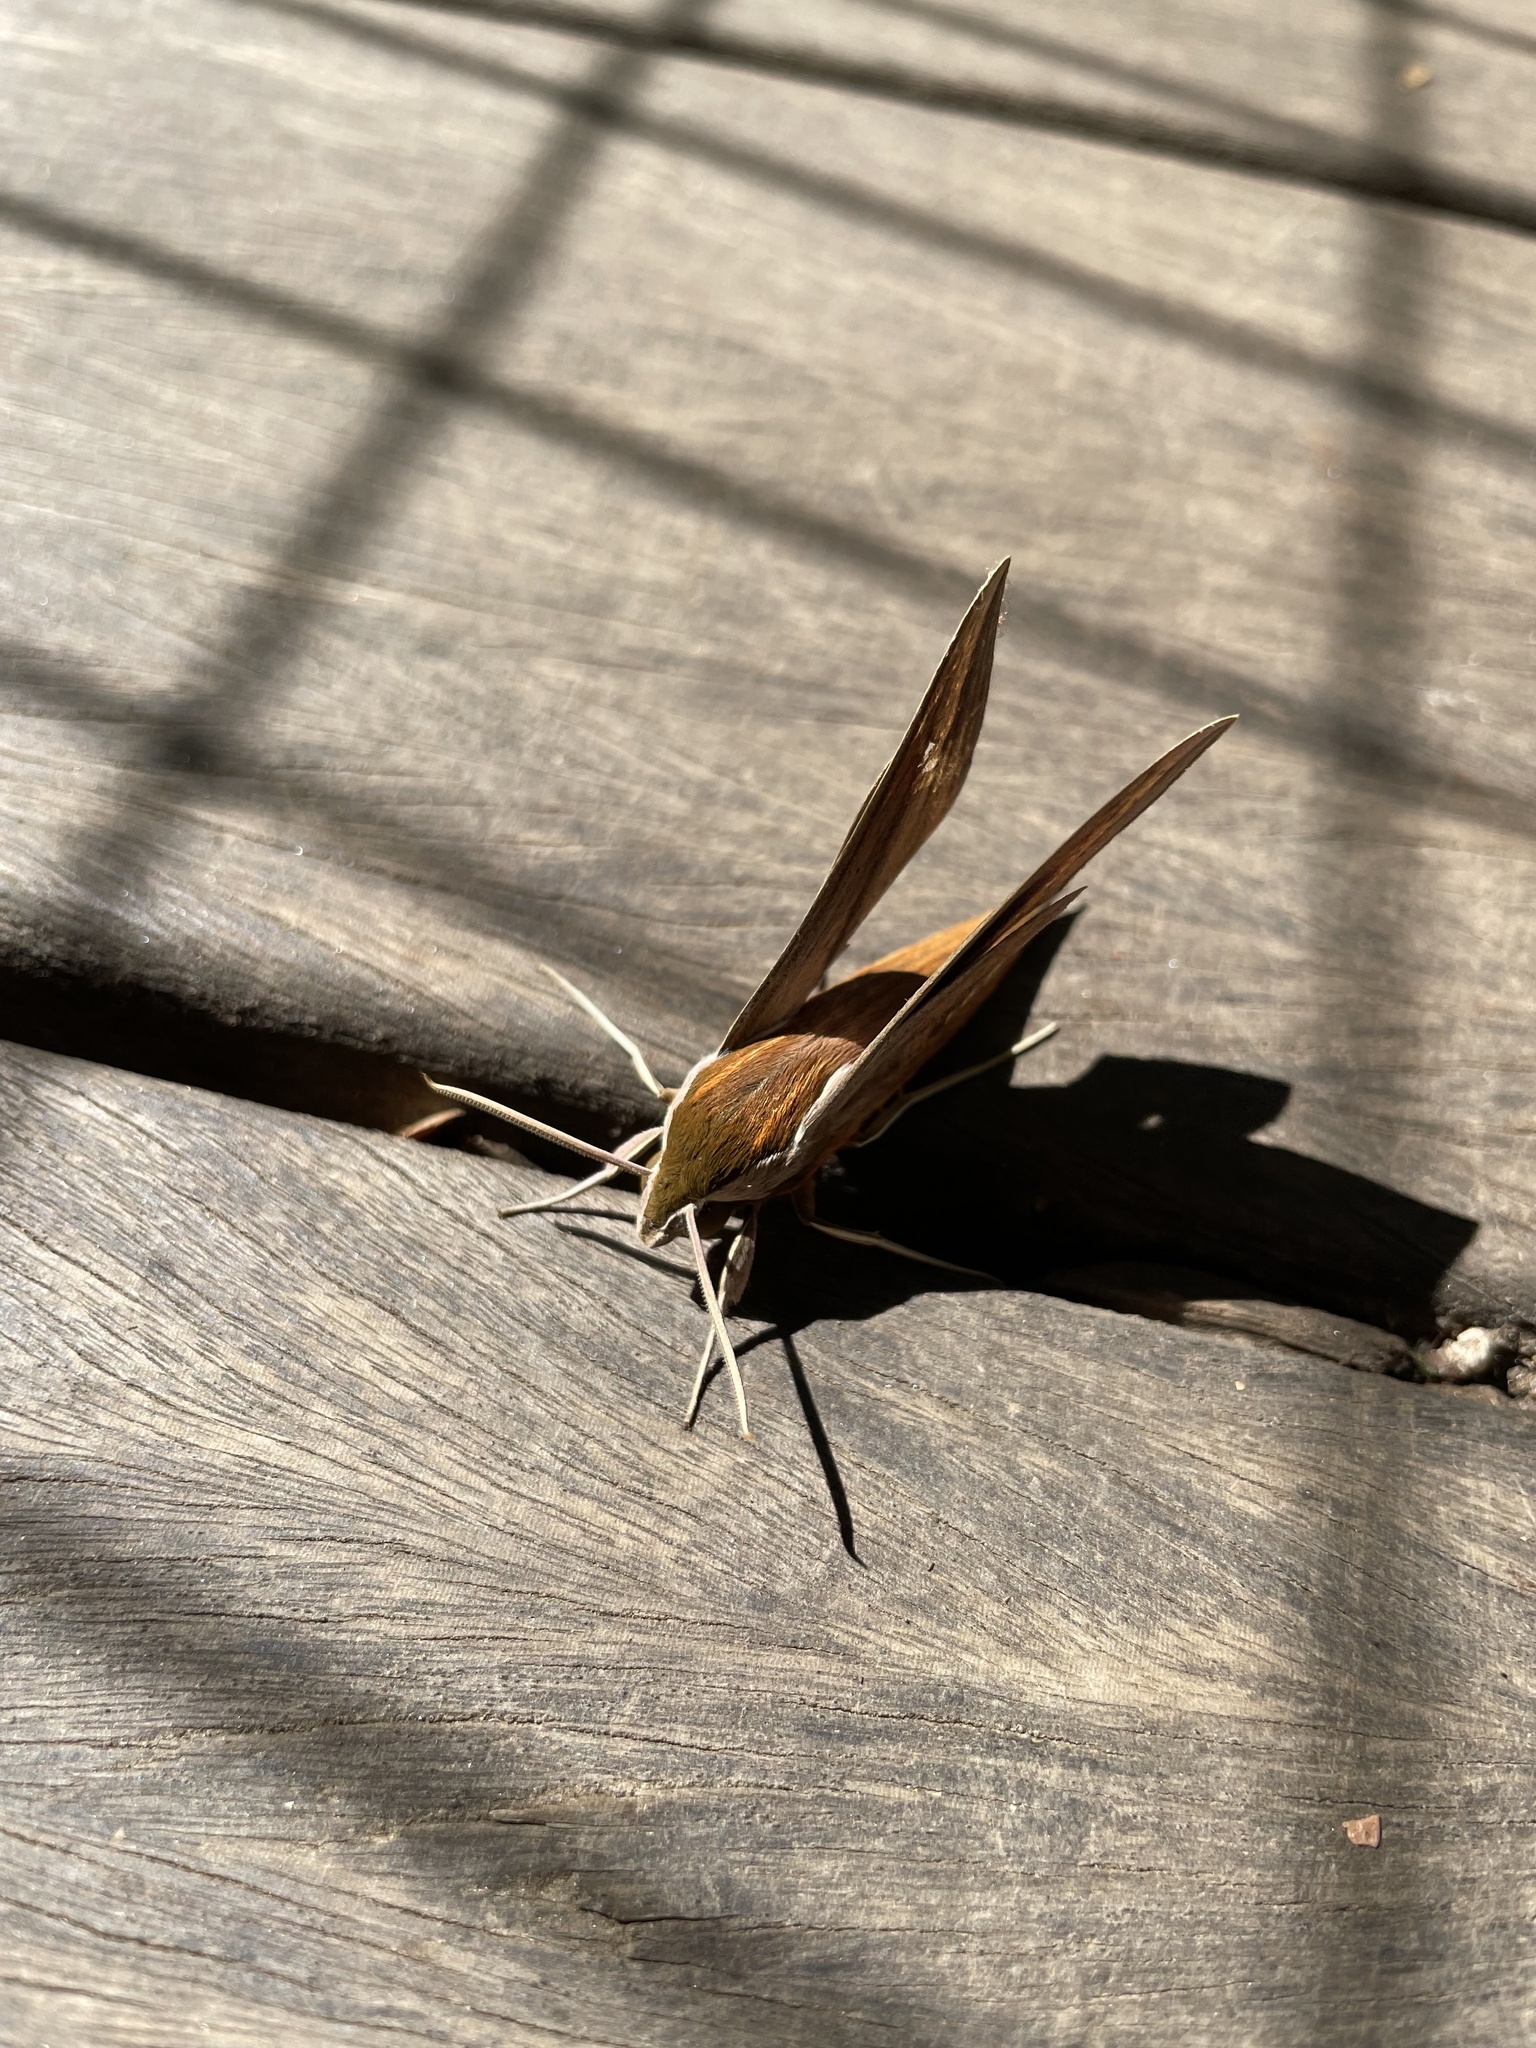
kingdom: Animalia
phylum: Arthropoda
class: Insecta
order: Lepidoptera
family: Sphingidae
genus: Xylophanes
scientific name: Xylophanes tersa
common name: Tersa sphinx
